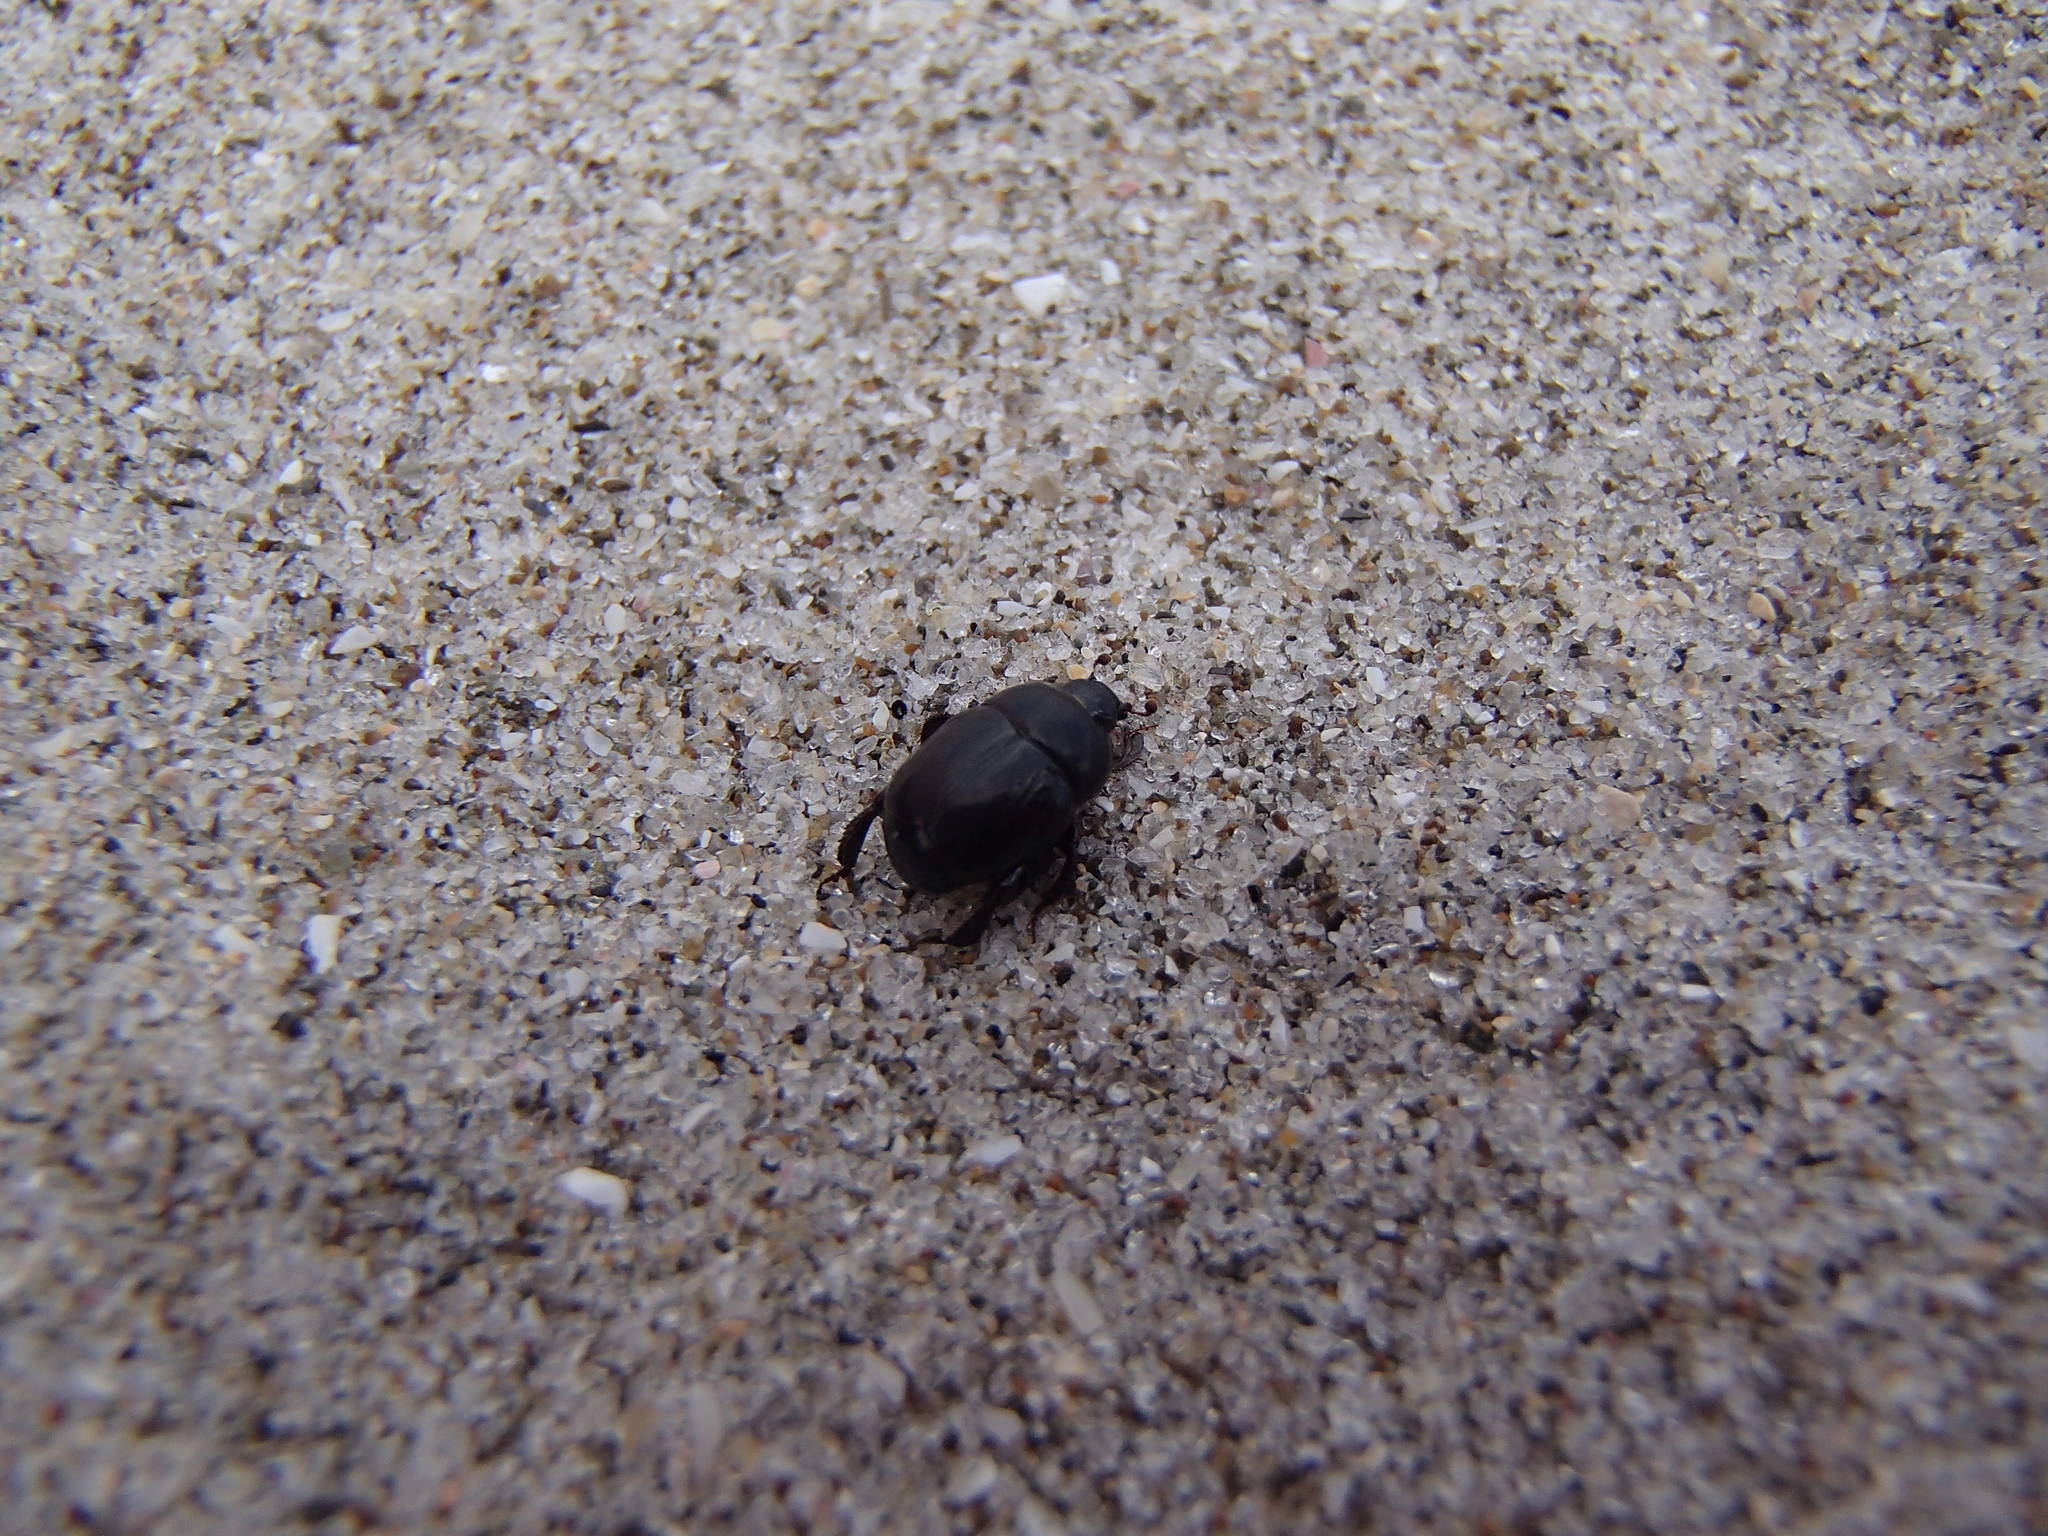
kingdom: Animalia
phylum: Arthropoda
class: Insecta
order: Coleoptera
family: Histeridae
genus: Saprinus
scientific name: Saprinus pedator
